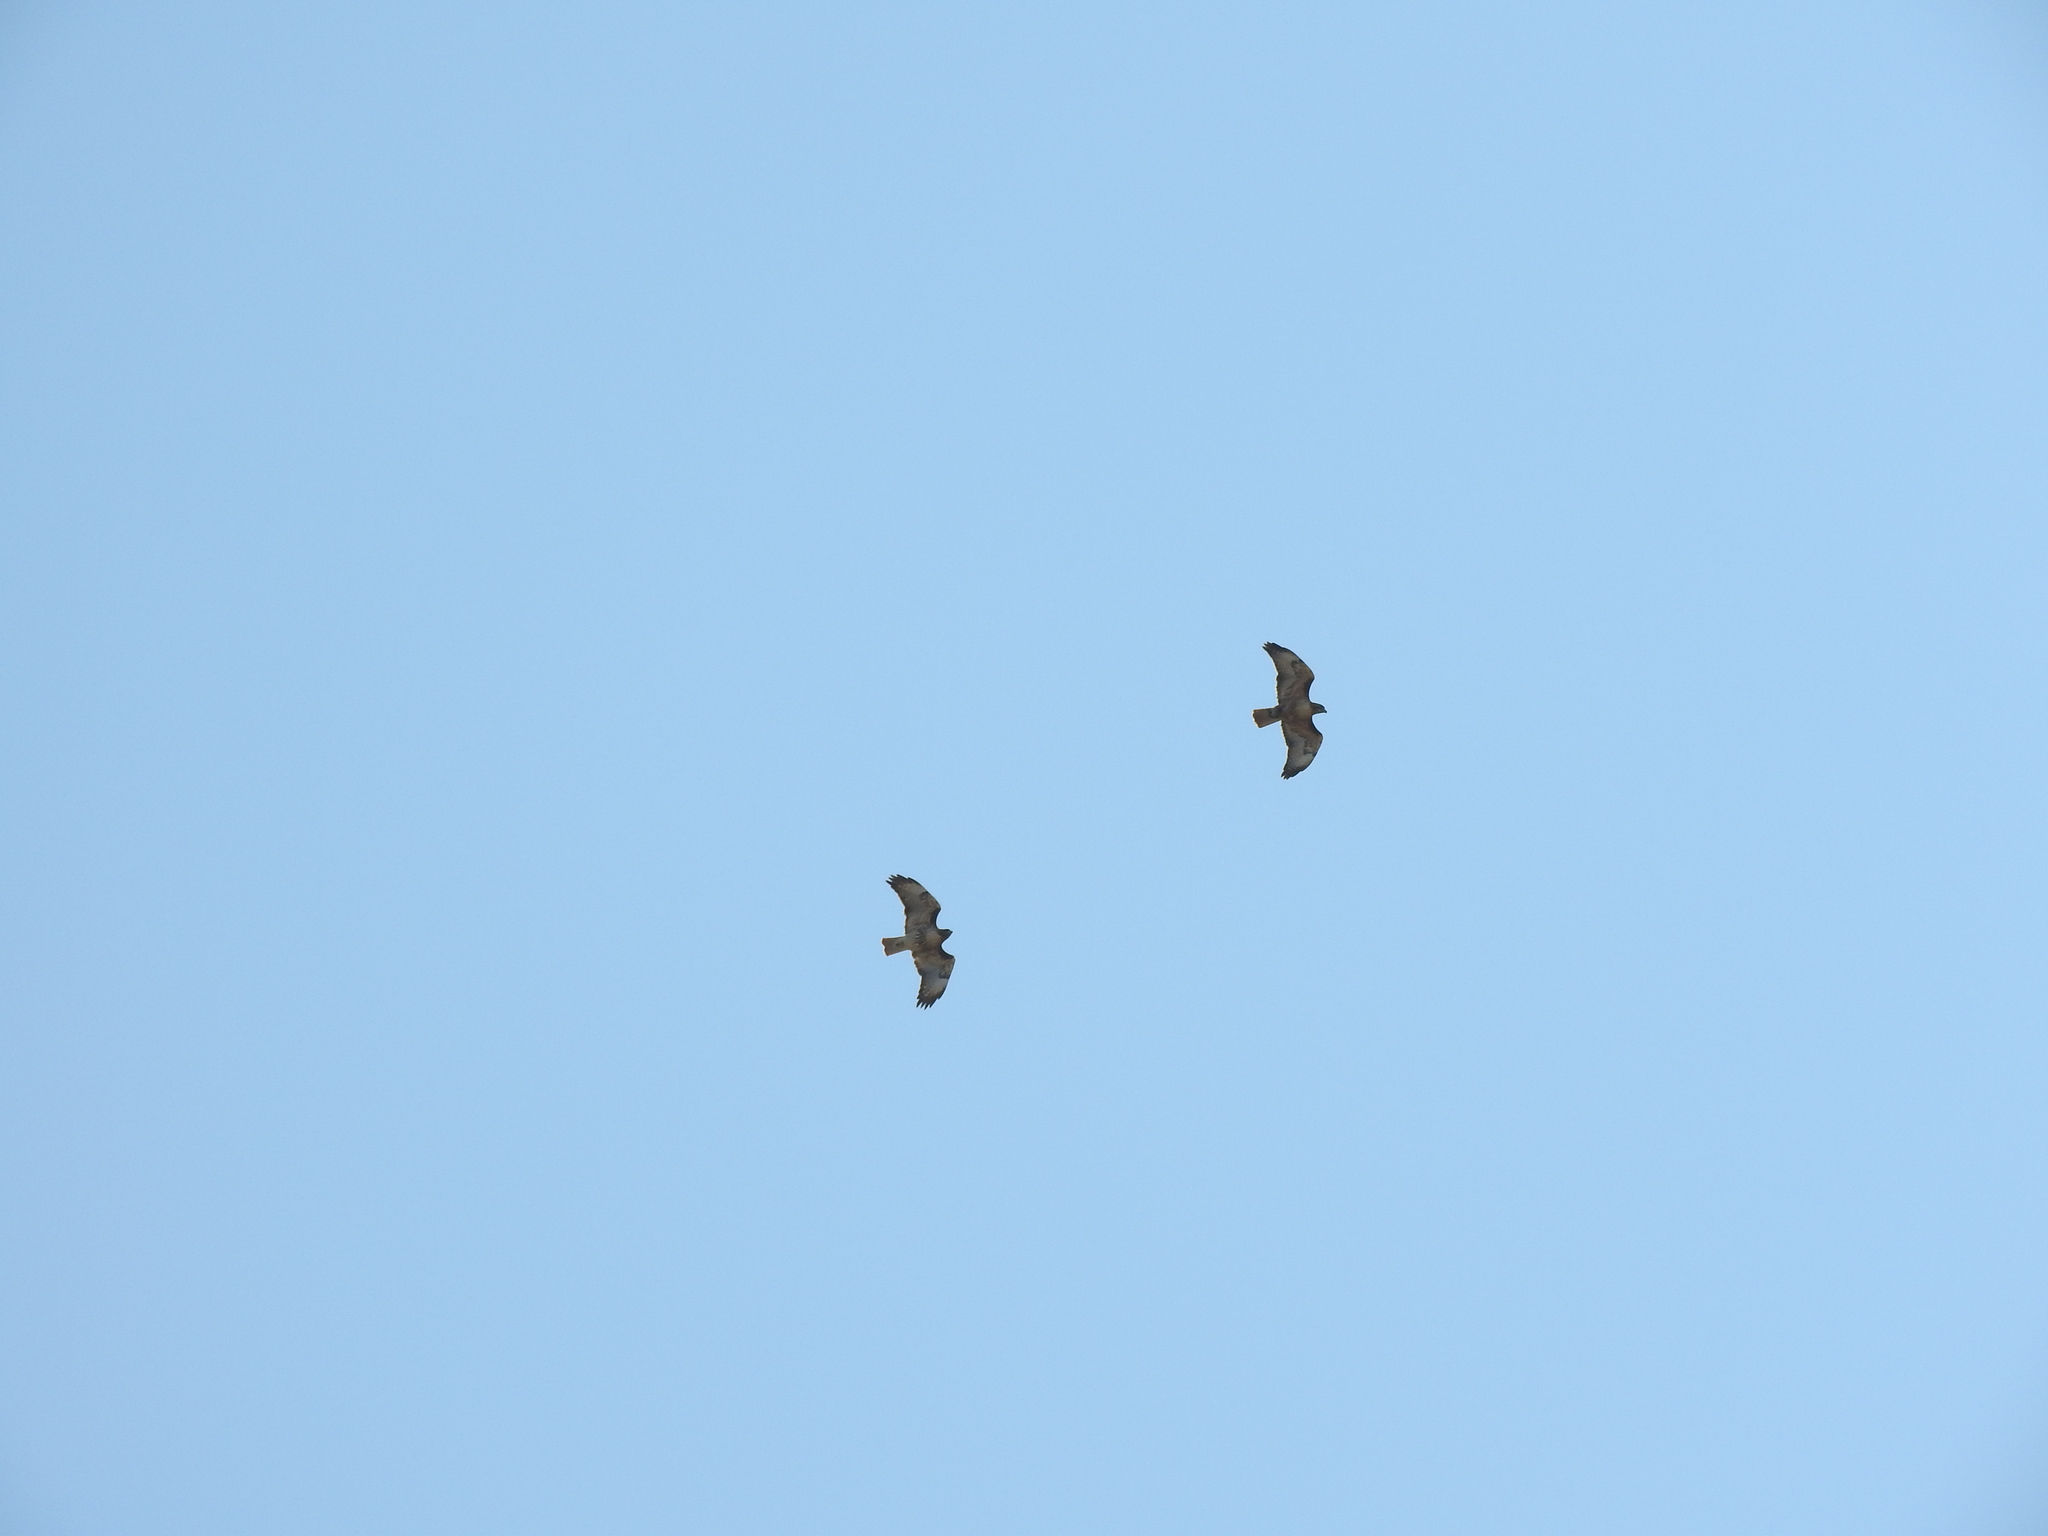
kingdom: Animalia
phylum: Chordata
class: Aves
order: Accipitriformes
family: Accipitridae
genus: Buteo
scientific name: Buteo jamaicensis
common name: Red-tailed hawk
